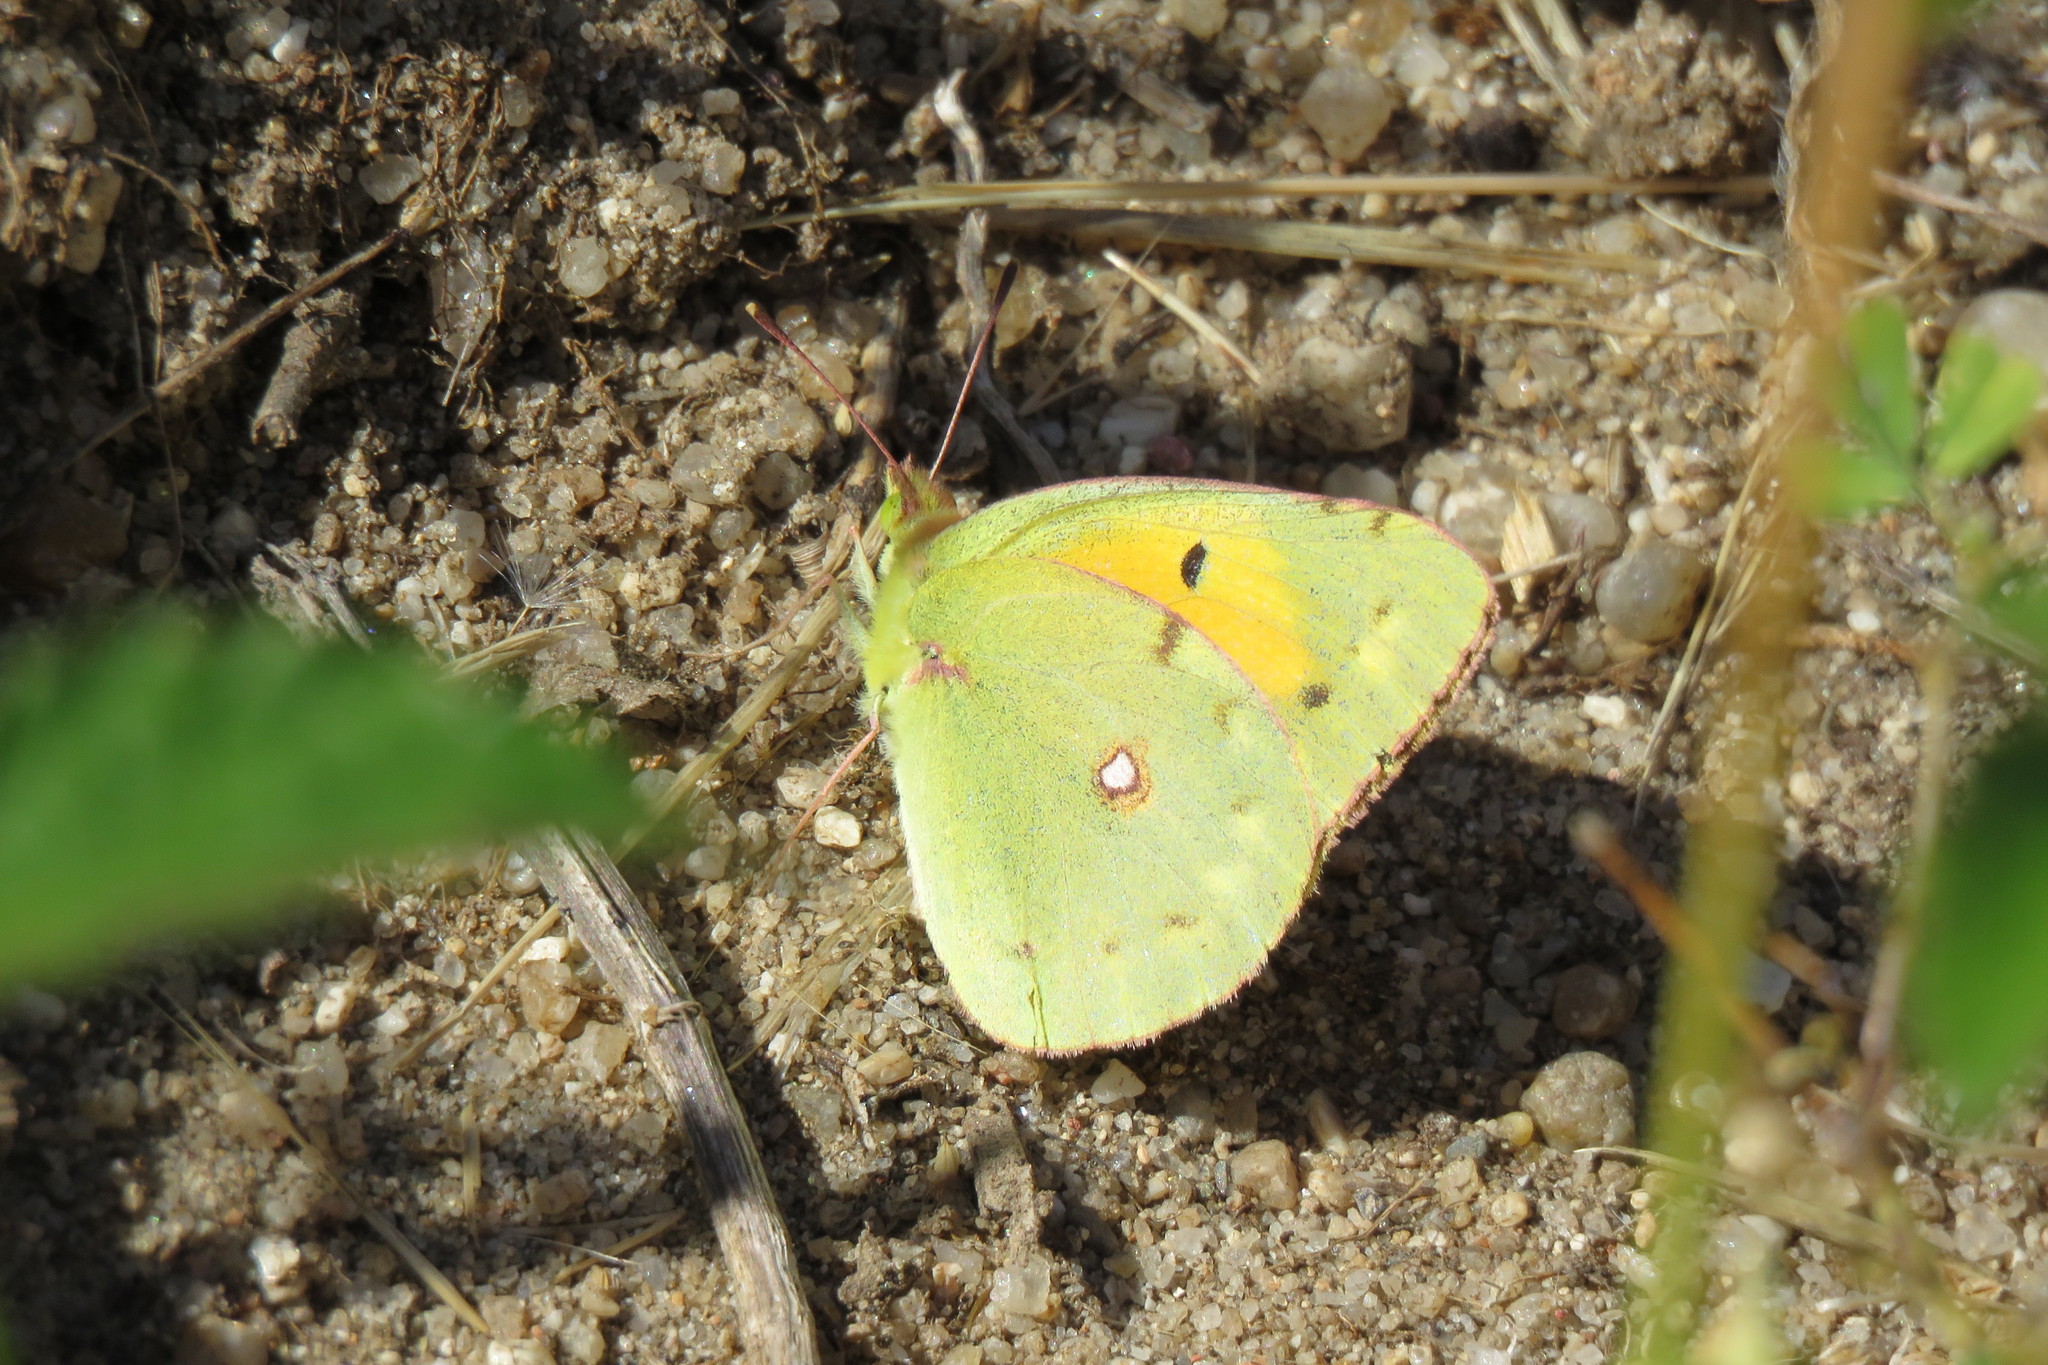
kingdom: Animalia
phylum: Arthropoda
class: Insecta
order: Lepidoptera
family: Pieridae
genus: Colias
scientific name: Colias croceus
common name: Clouded yellow
